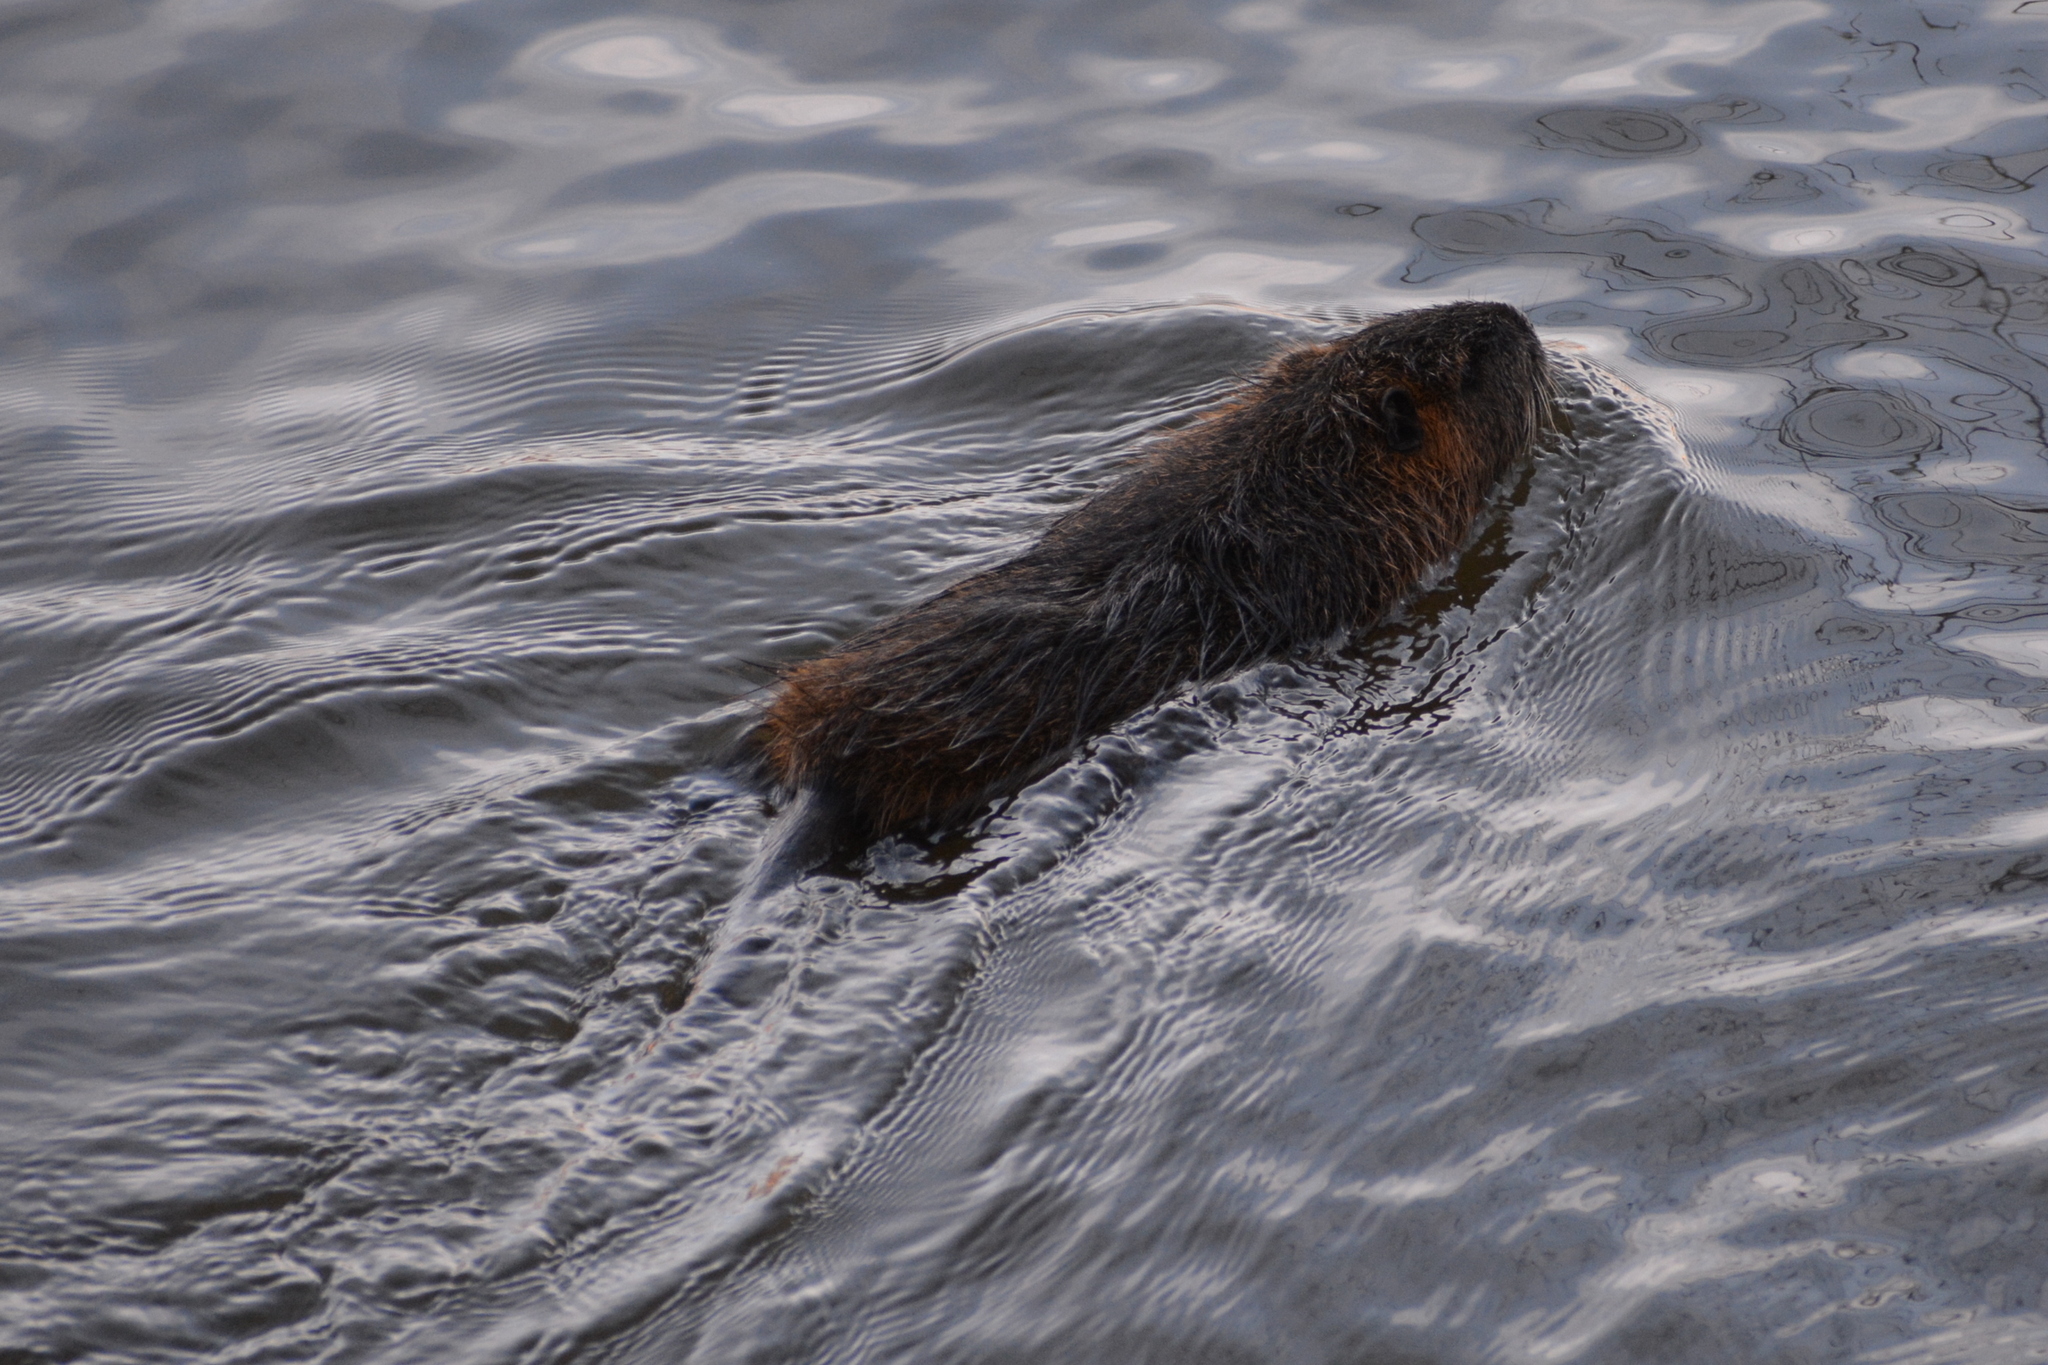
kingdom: Animalia
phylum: Chordata
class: Mammalia
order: Rodentia
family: Myocastoridae
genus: Myocastor
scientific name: Myocastor coypus
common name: Coypu
